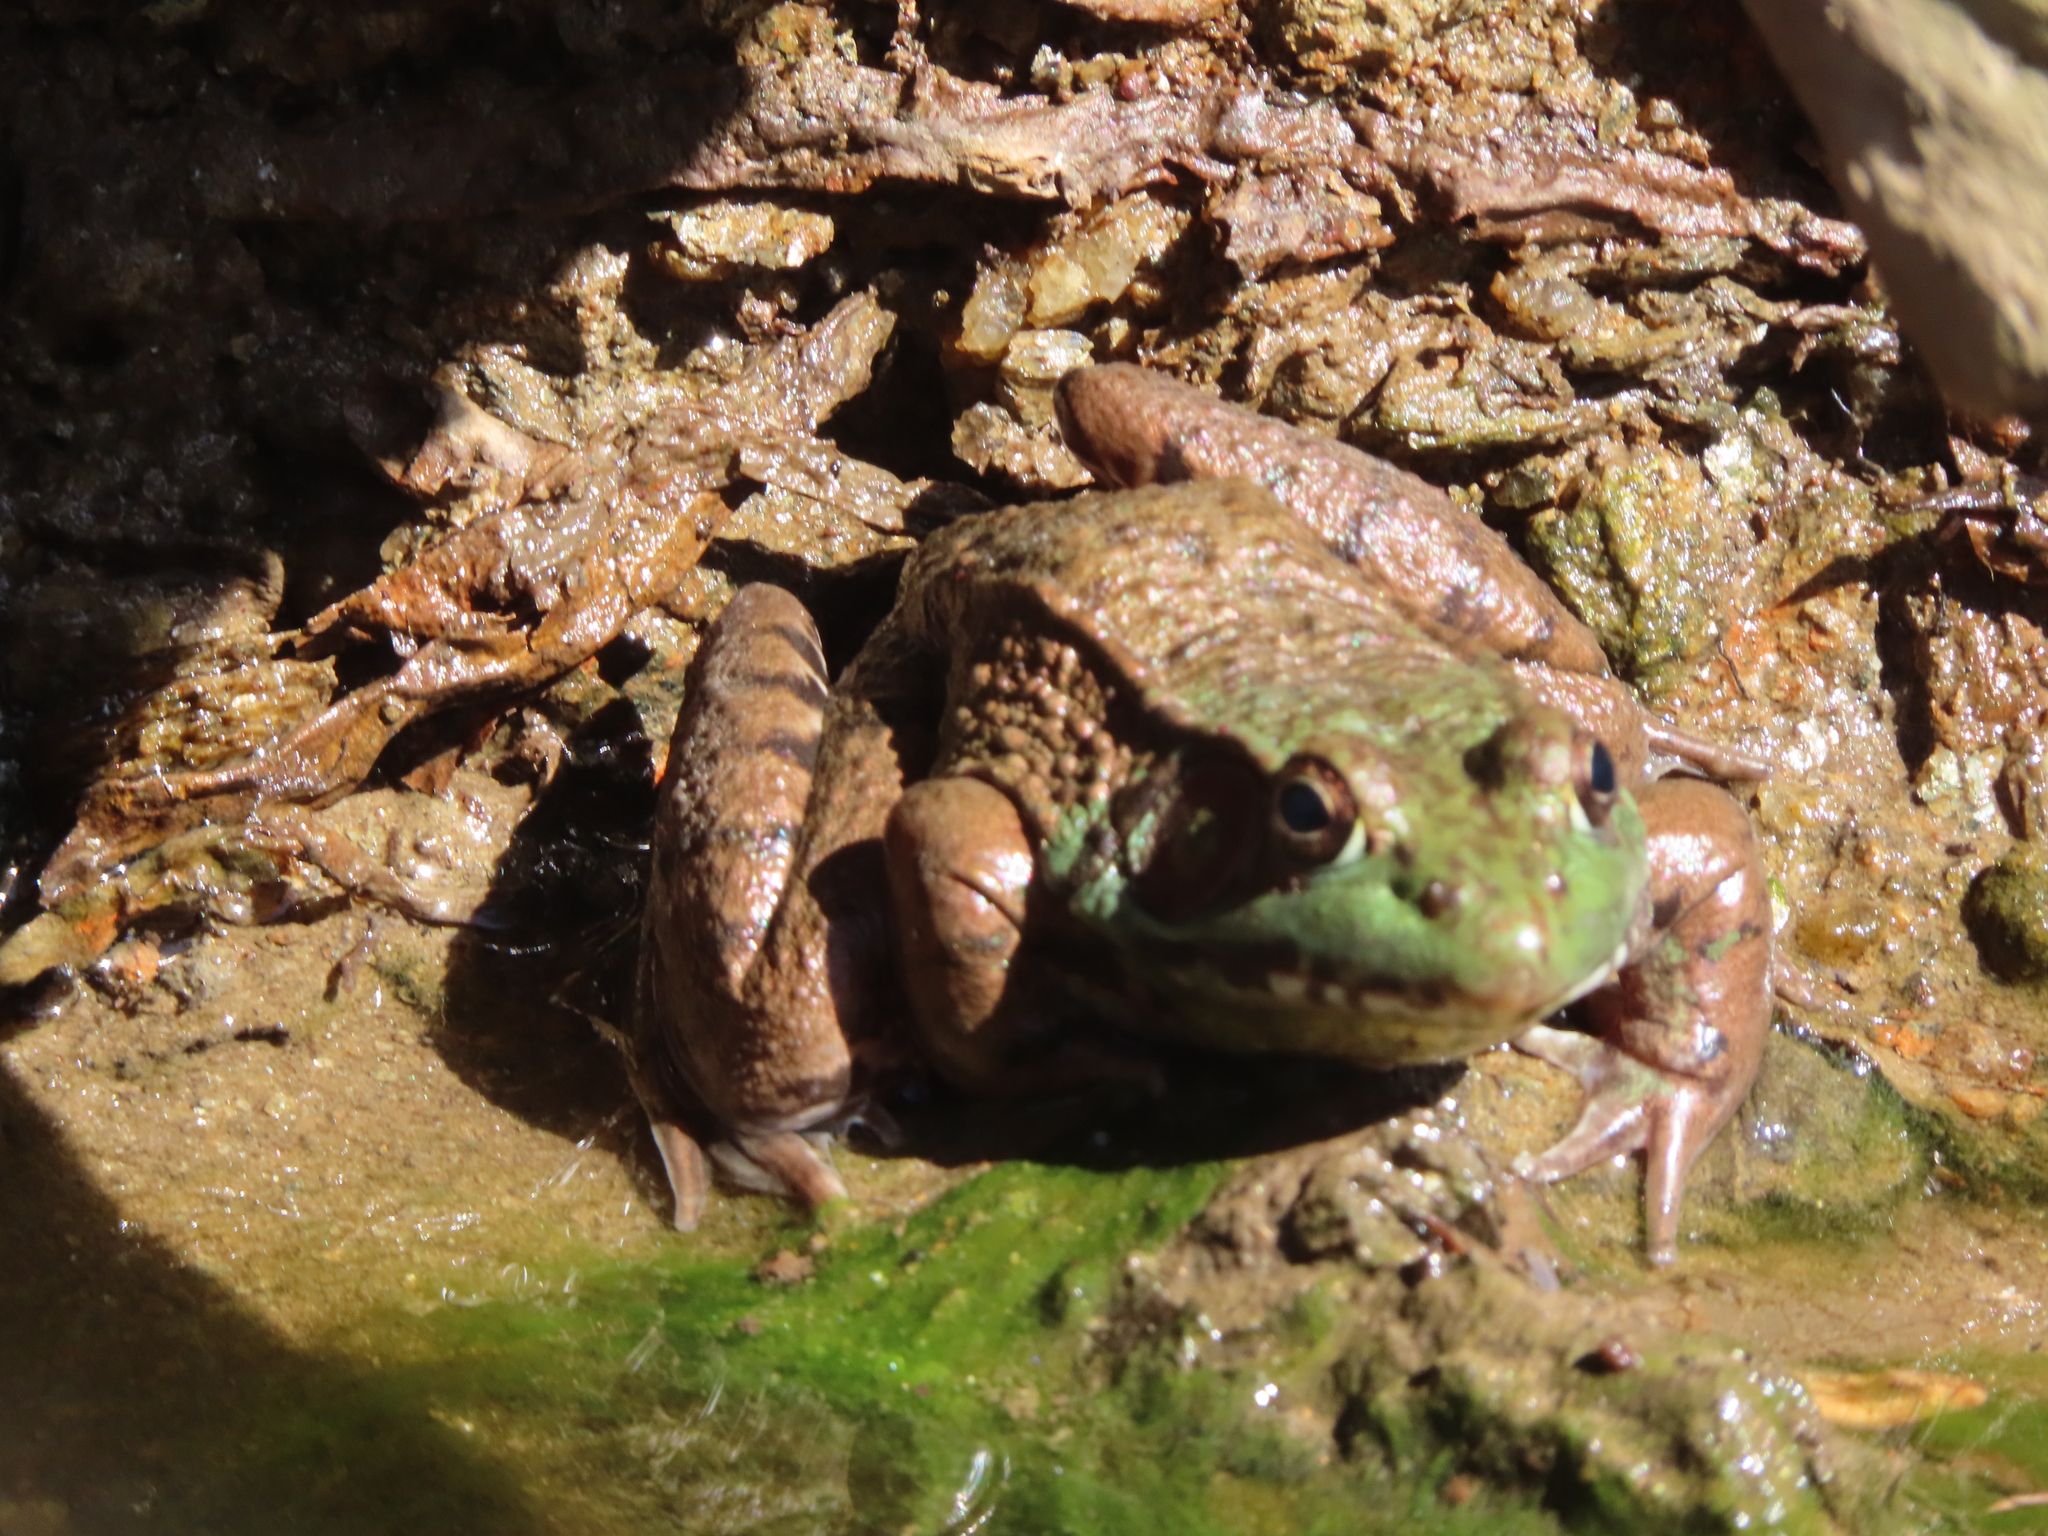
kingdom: Animalia
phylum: Chordata
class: Amphibia
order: Anura
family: Ranidae
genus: Lithobates
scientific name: Lithobates clamitans
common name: Green frog
